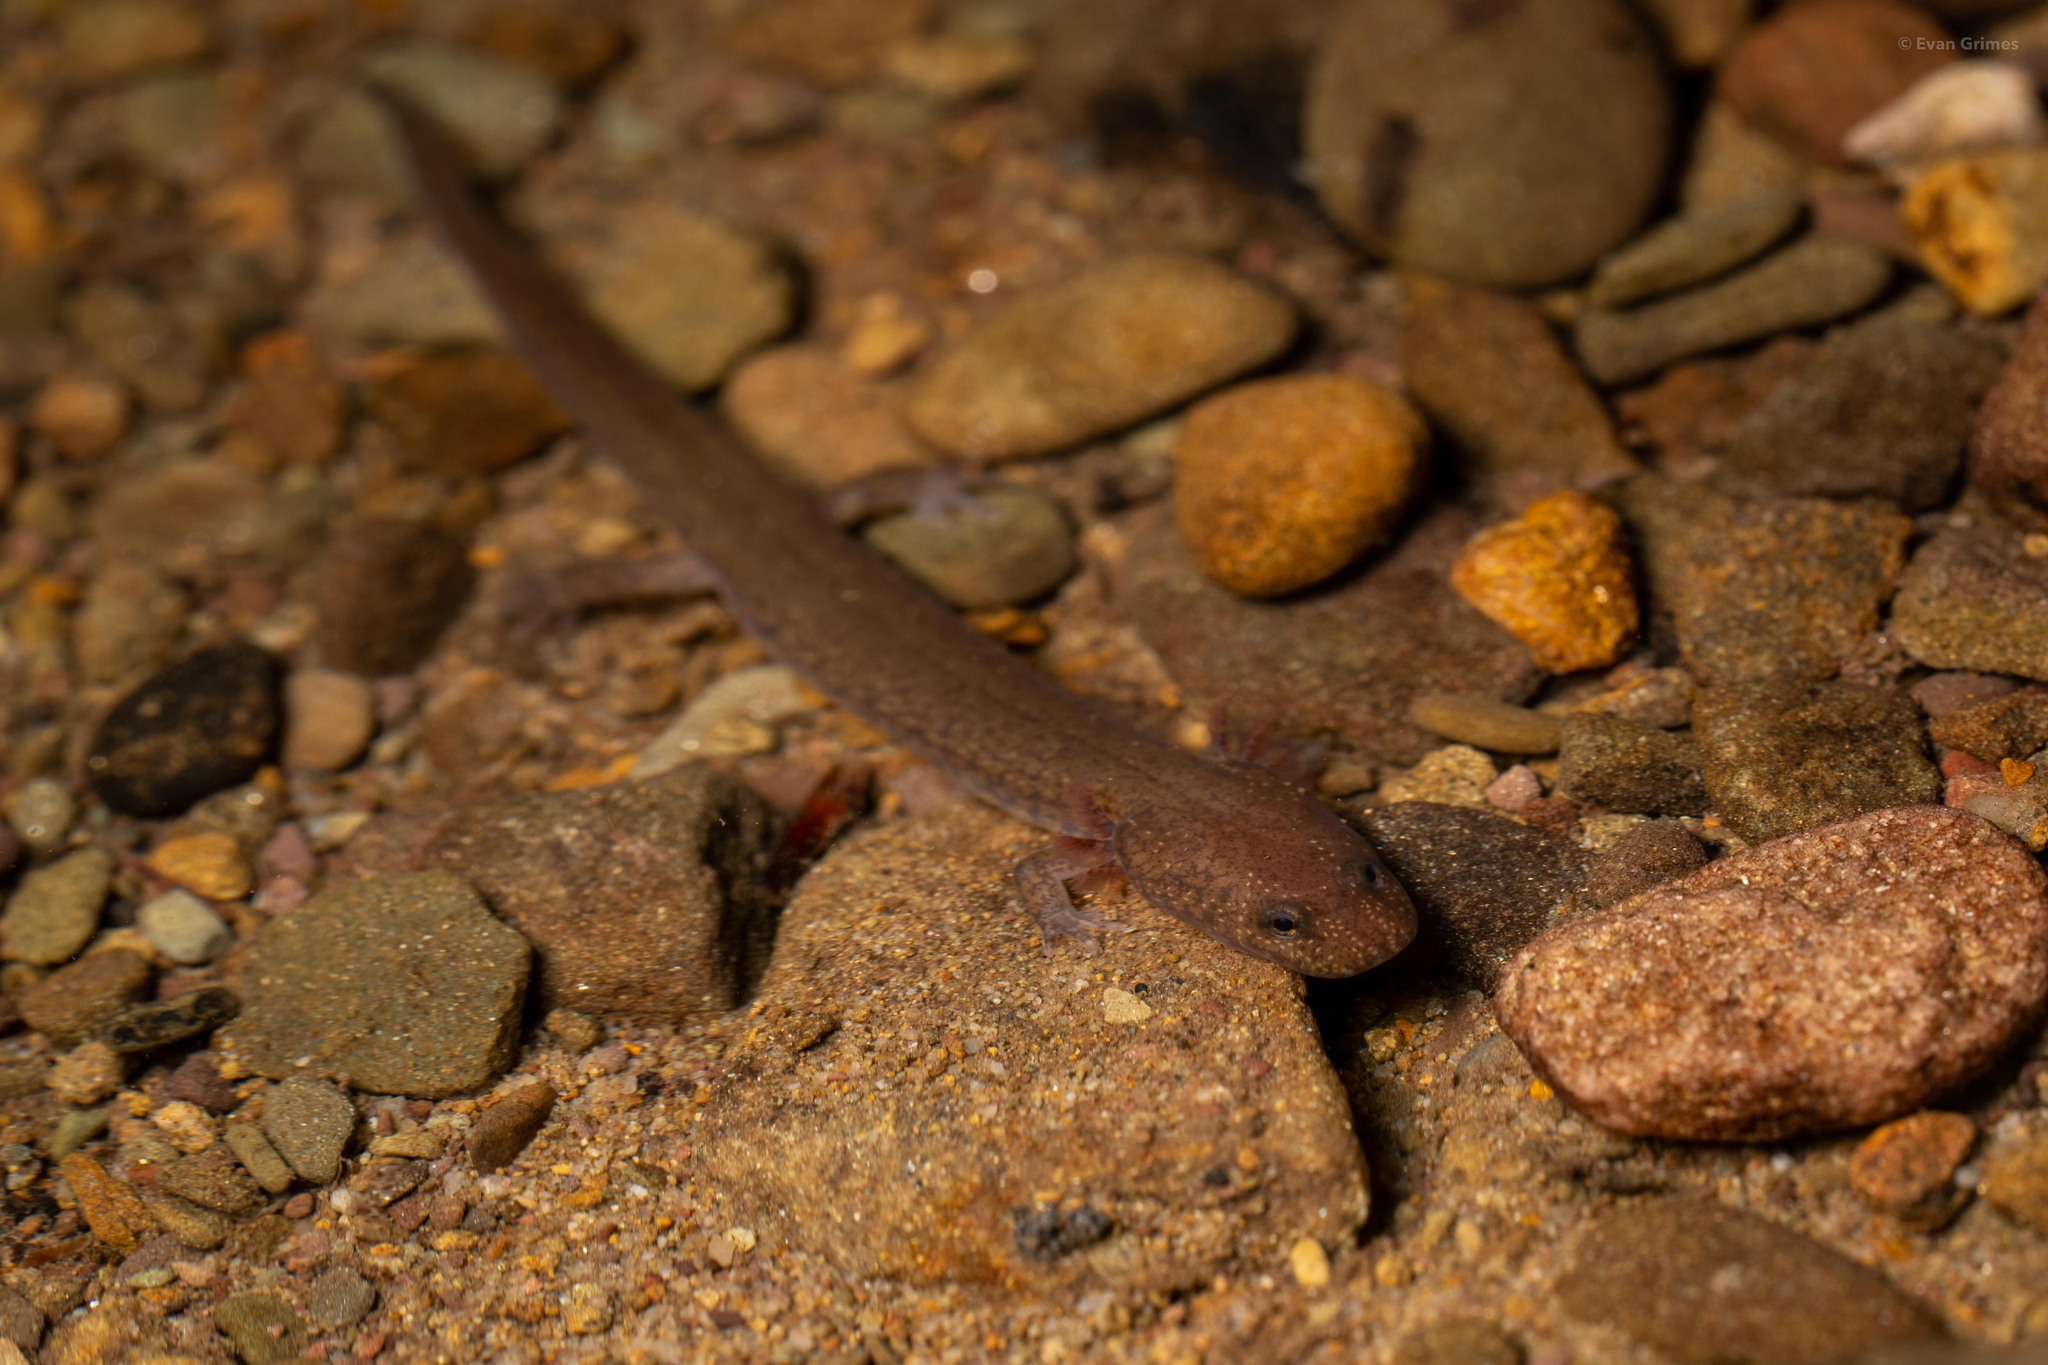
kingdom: Animalia
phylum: Chordata
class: Amphibia
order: Caudata
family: Plethodontidae
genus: Gyrinophilus
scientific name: Gyrinophilus porphyriticus
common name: Spring salamander
